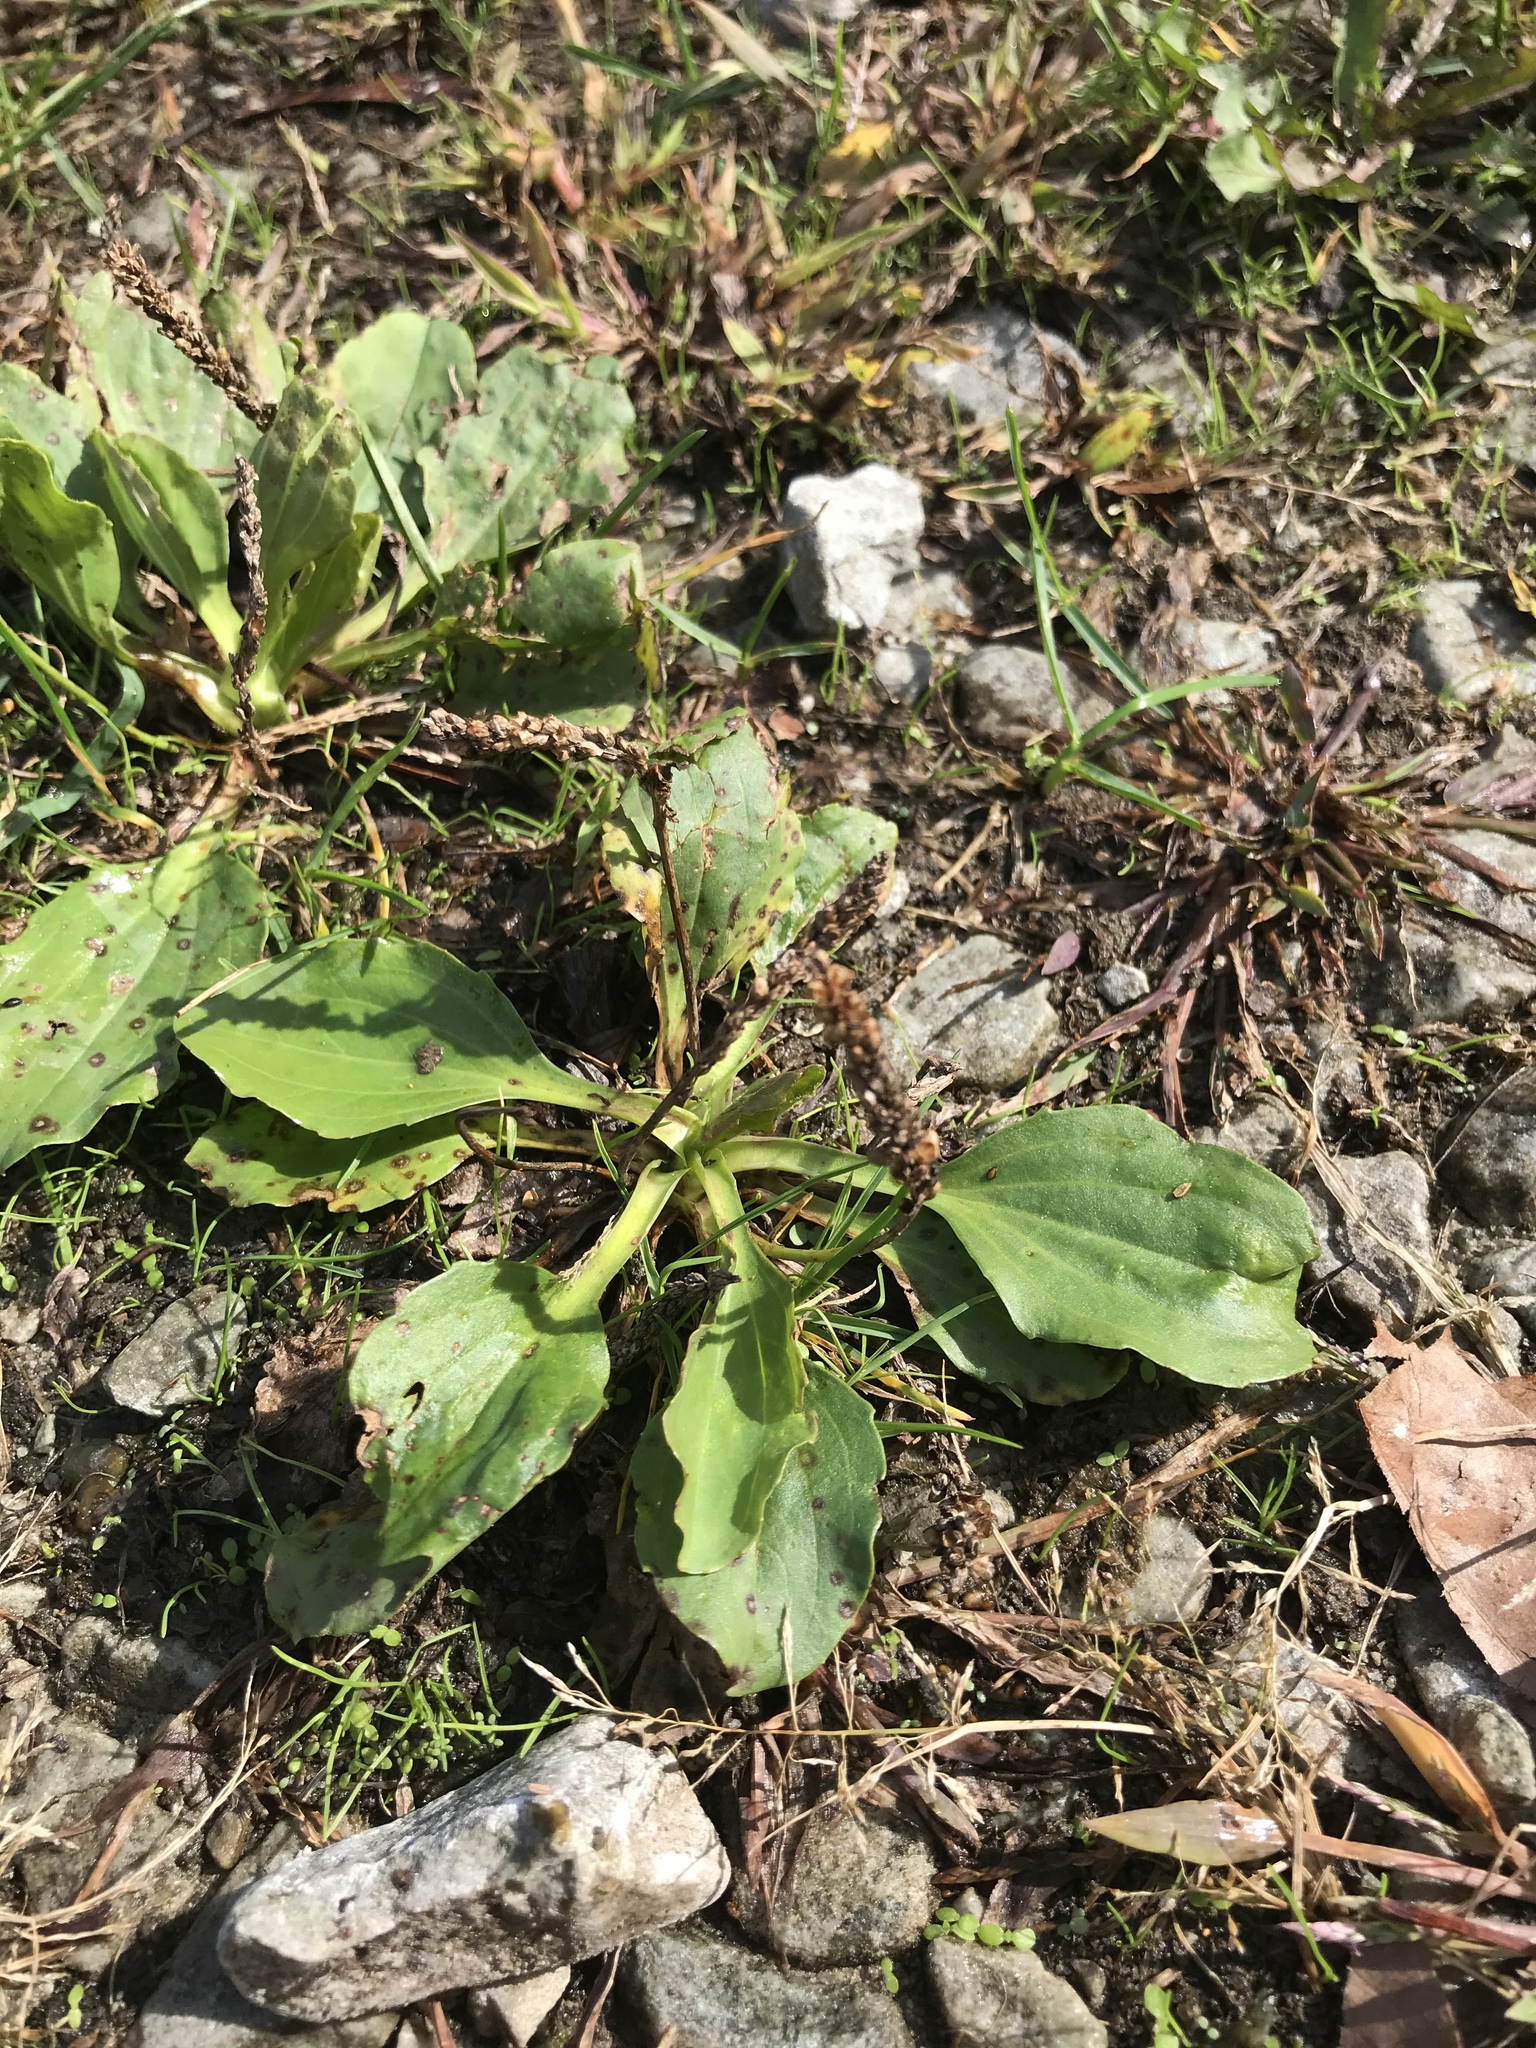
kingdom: Plantae
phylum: Tracheophyta
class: Magnoliopsida
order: Lamiales
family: Plantaginaceae
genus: Plantago
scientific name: Plantago major
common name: Common plantain
